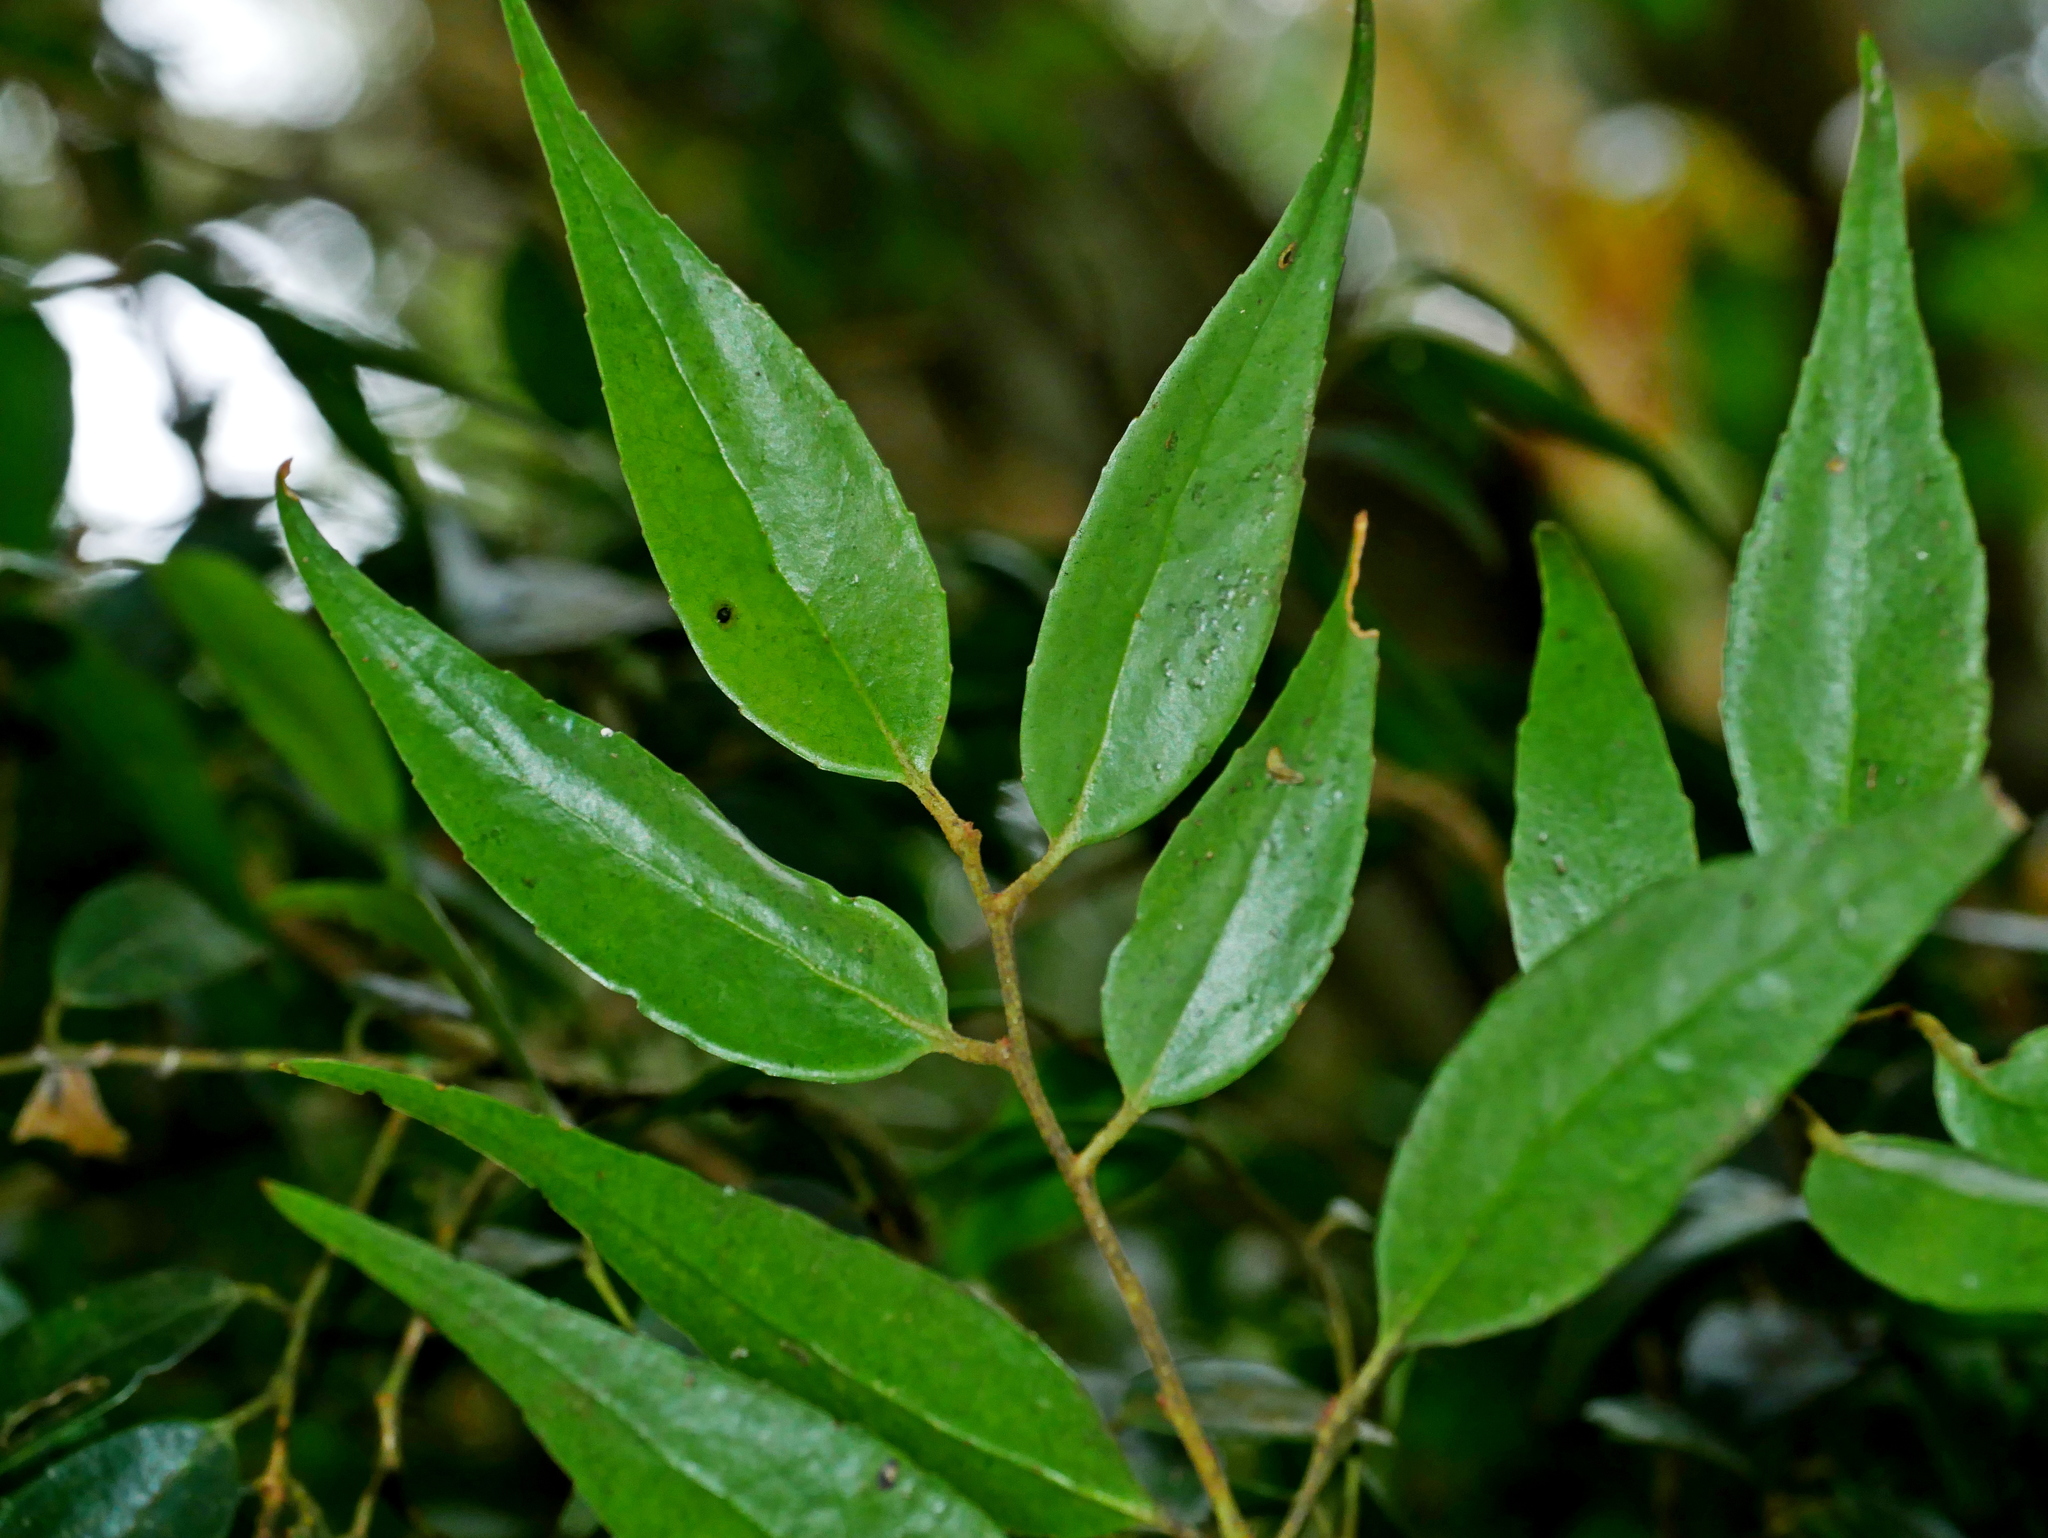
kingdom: Plantae
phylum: Tracheophyta
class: Magnoliopsida
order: Ericales
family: Ericaceae
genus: Vaccinium
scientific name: Vaccinium kengii
